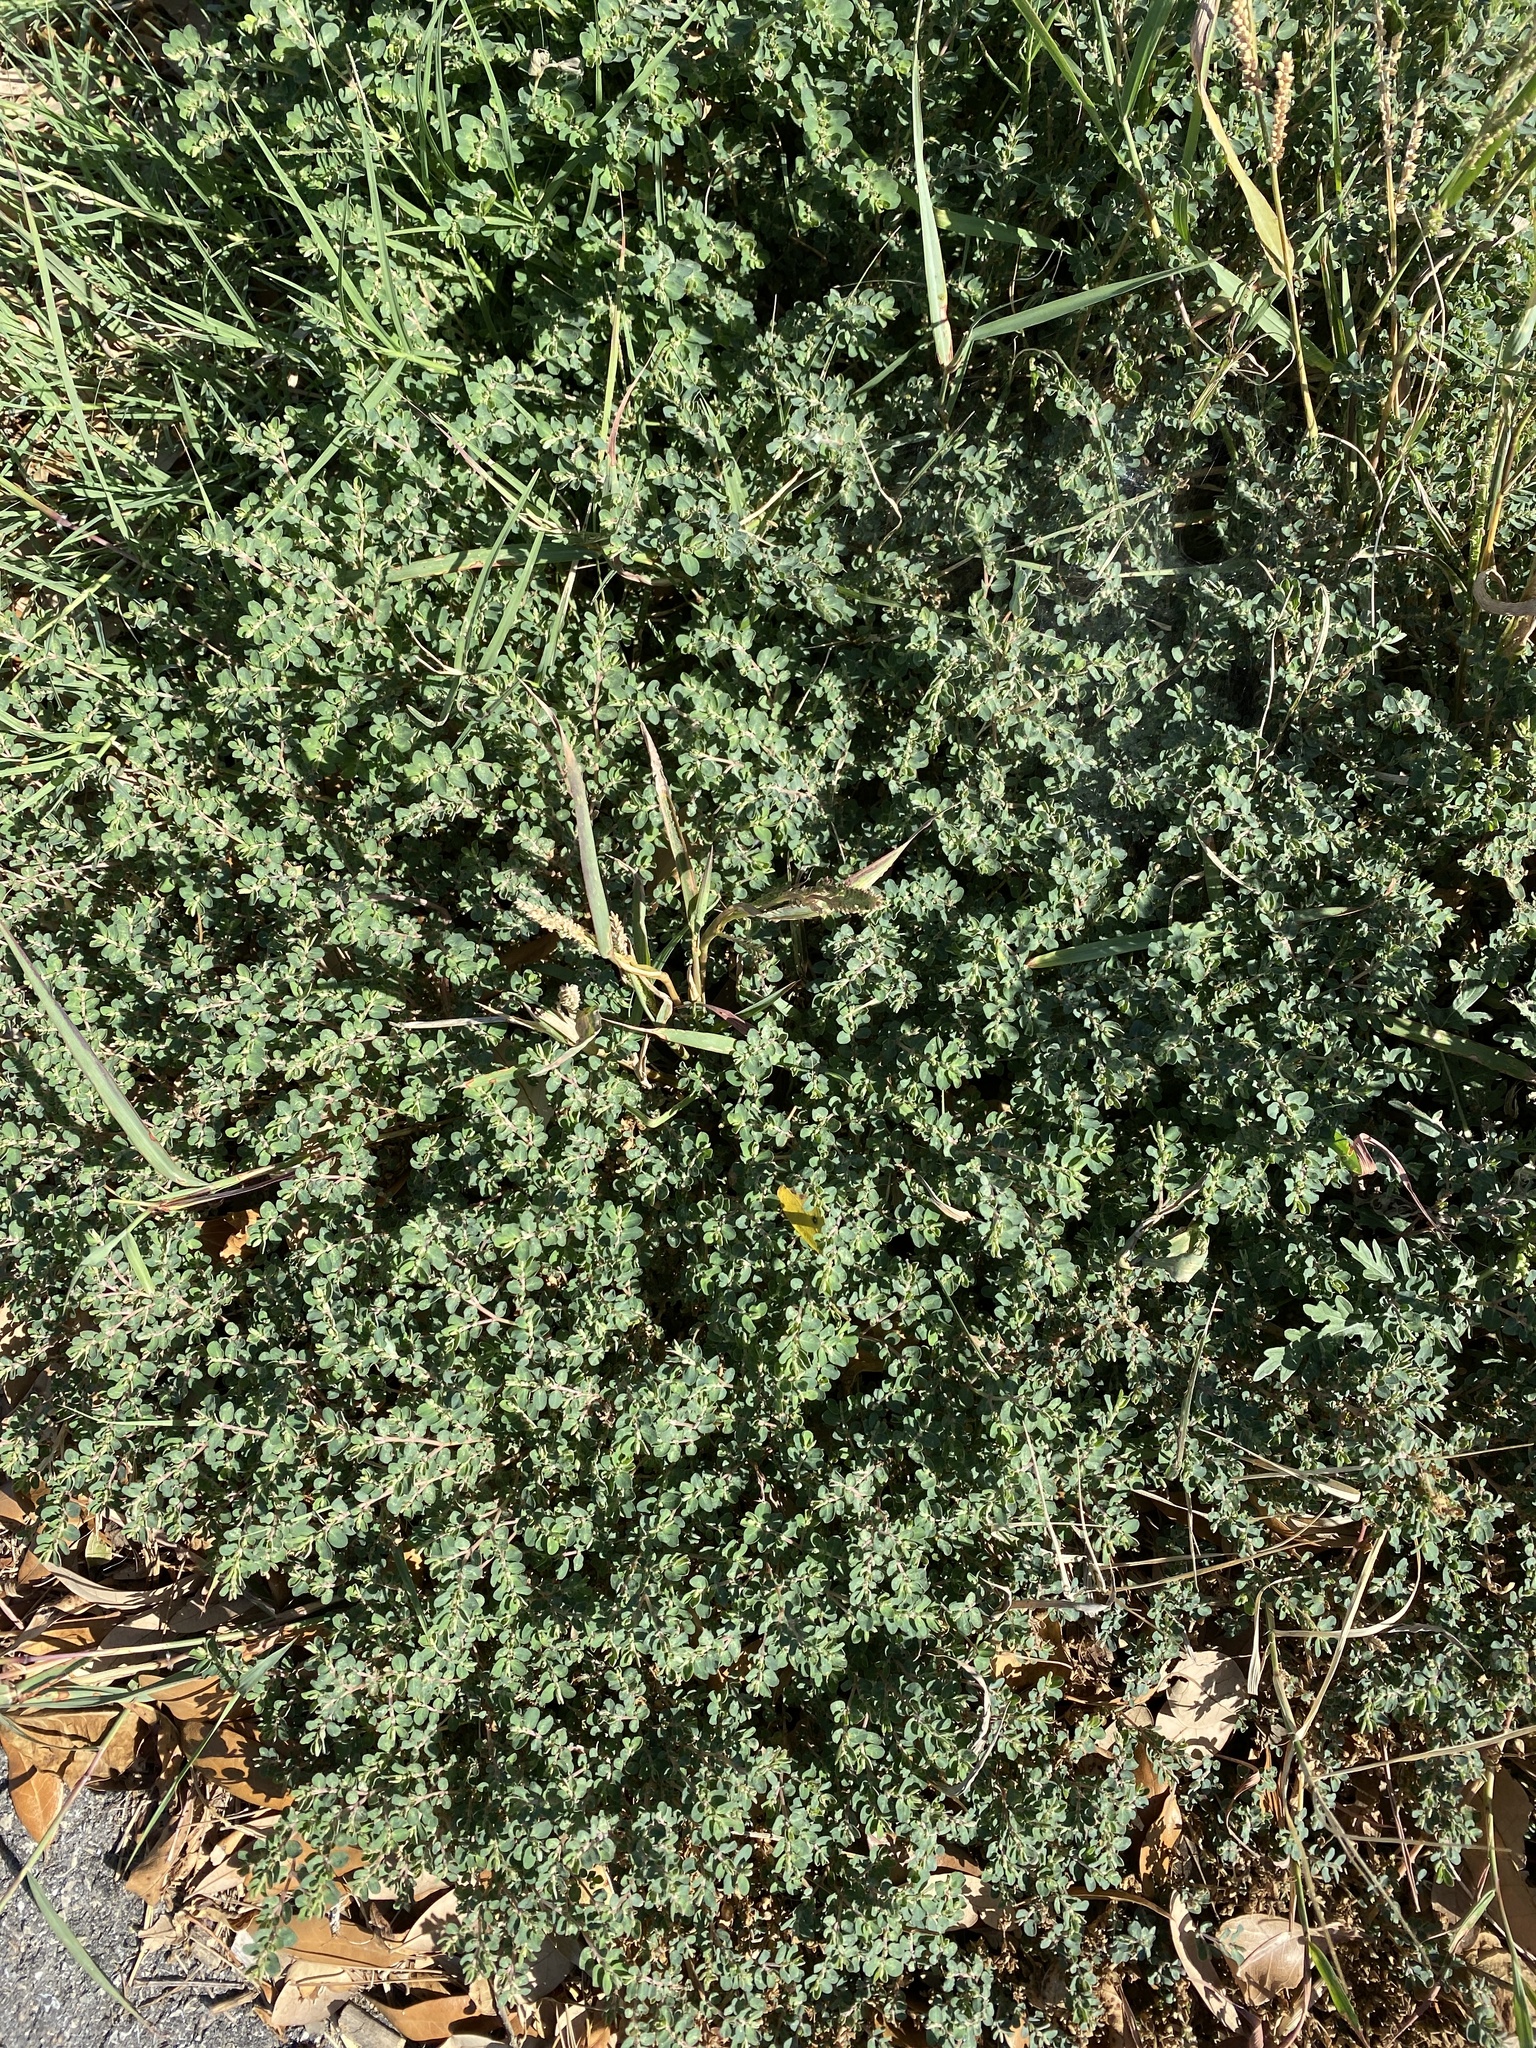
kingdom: Plantae
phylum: Tracheophyta
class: Magnoliopsida
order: Malpighiales
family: Euphorbiaceae
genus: Euphorbia
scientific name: Euphorbia prostrata
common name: Prostrate sandmat
